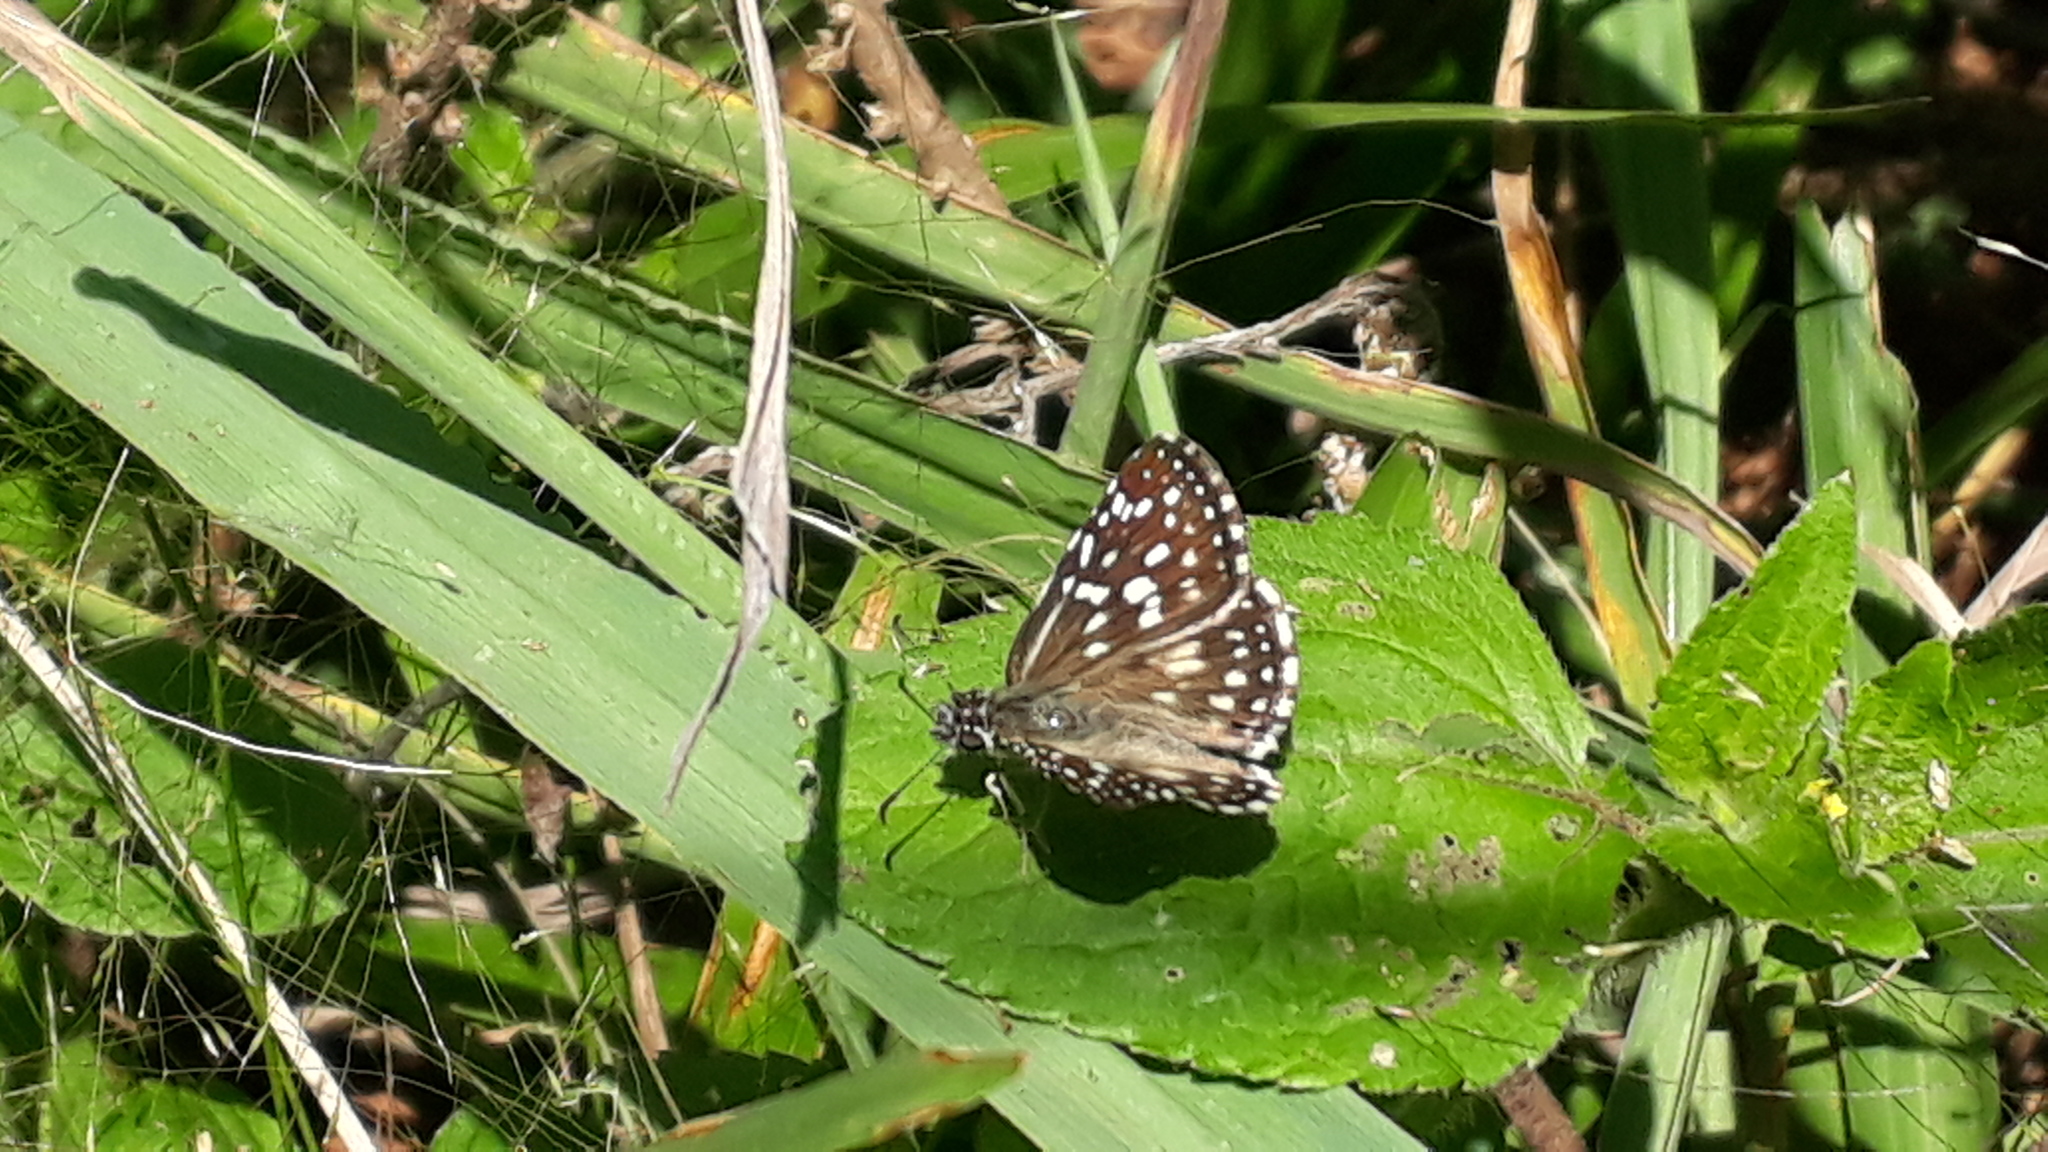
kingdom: Animalia
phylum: Arthropoda
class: Insecta
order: Lepidoptera
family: Hesperiidae
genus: Pyrgus
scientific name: Pyrgus oileus
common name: Tropical checkered-skipper
